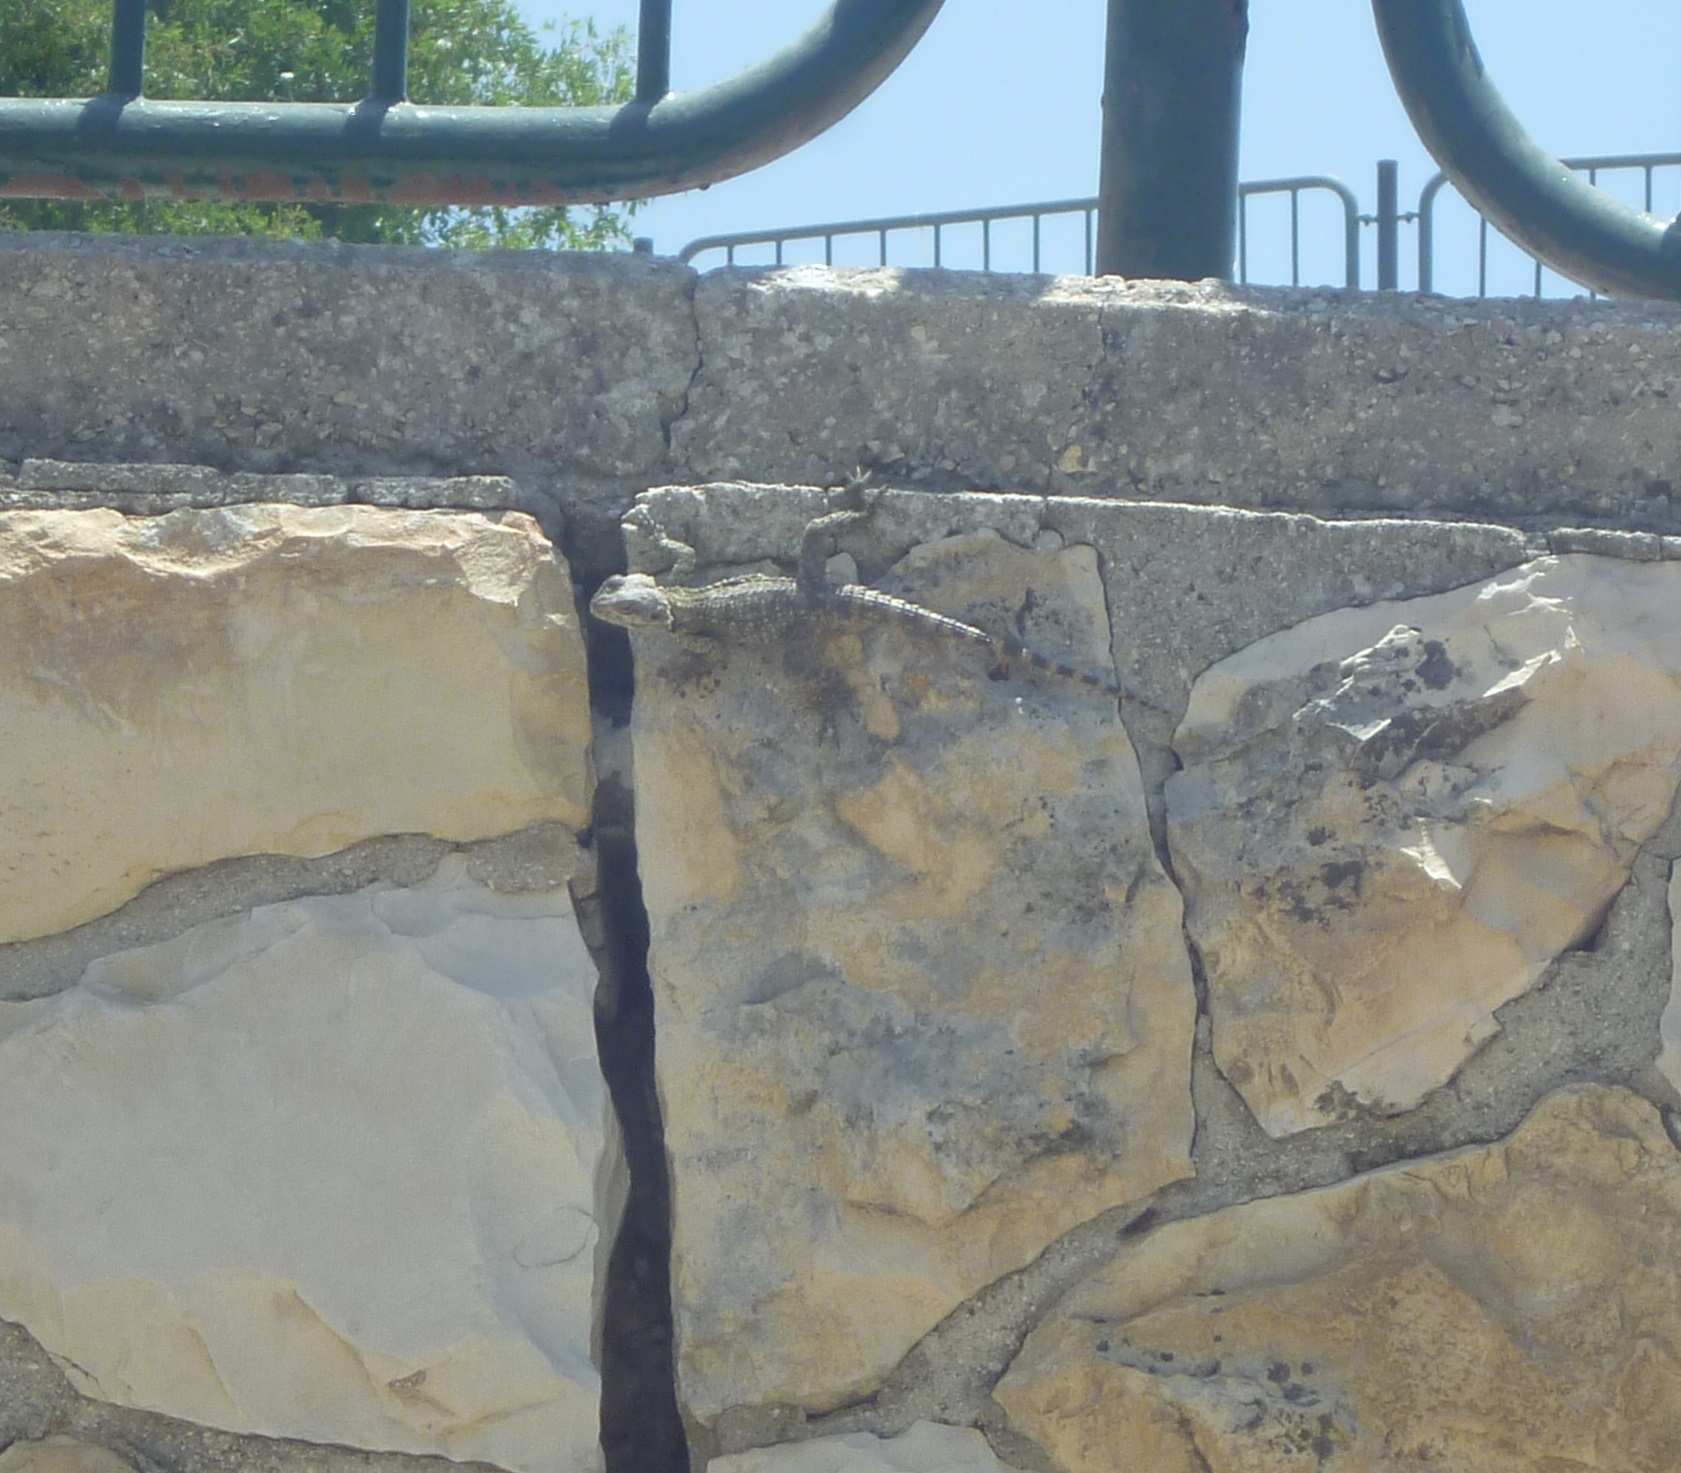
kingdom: Animalia
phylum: Chordata
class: Squamata
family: Agamidae
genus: Laudakia
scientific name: Laudakia vulgaris
